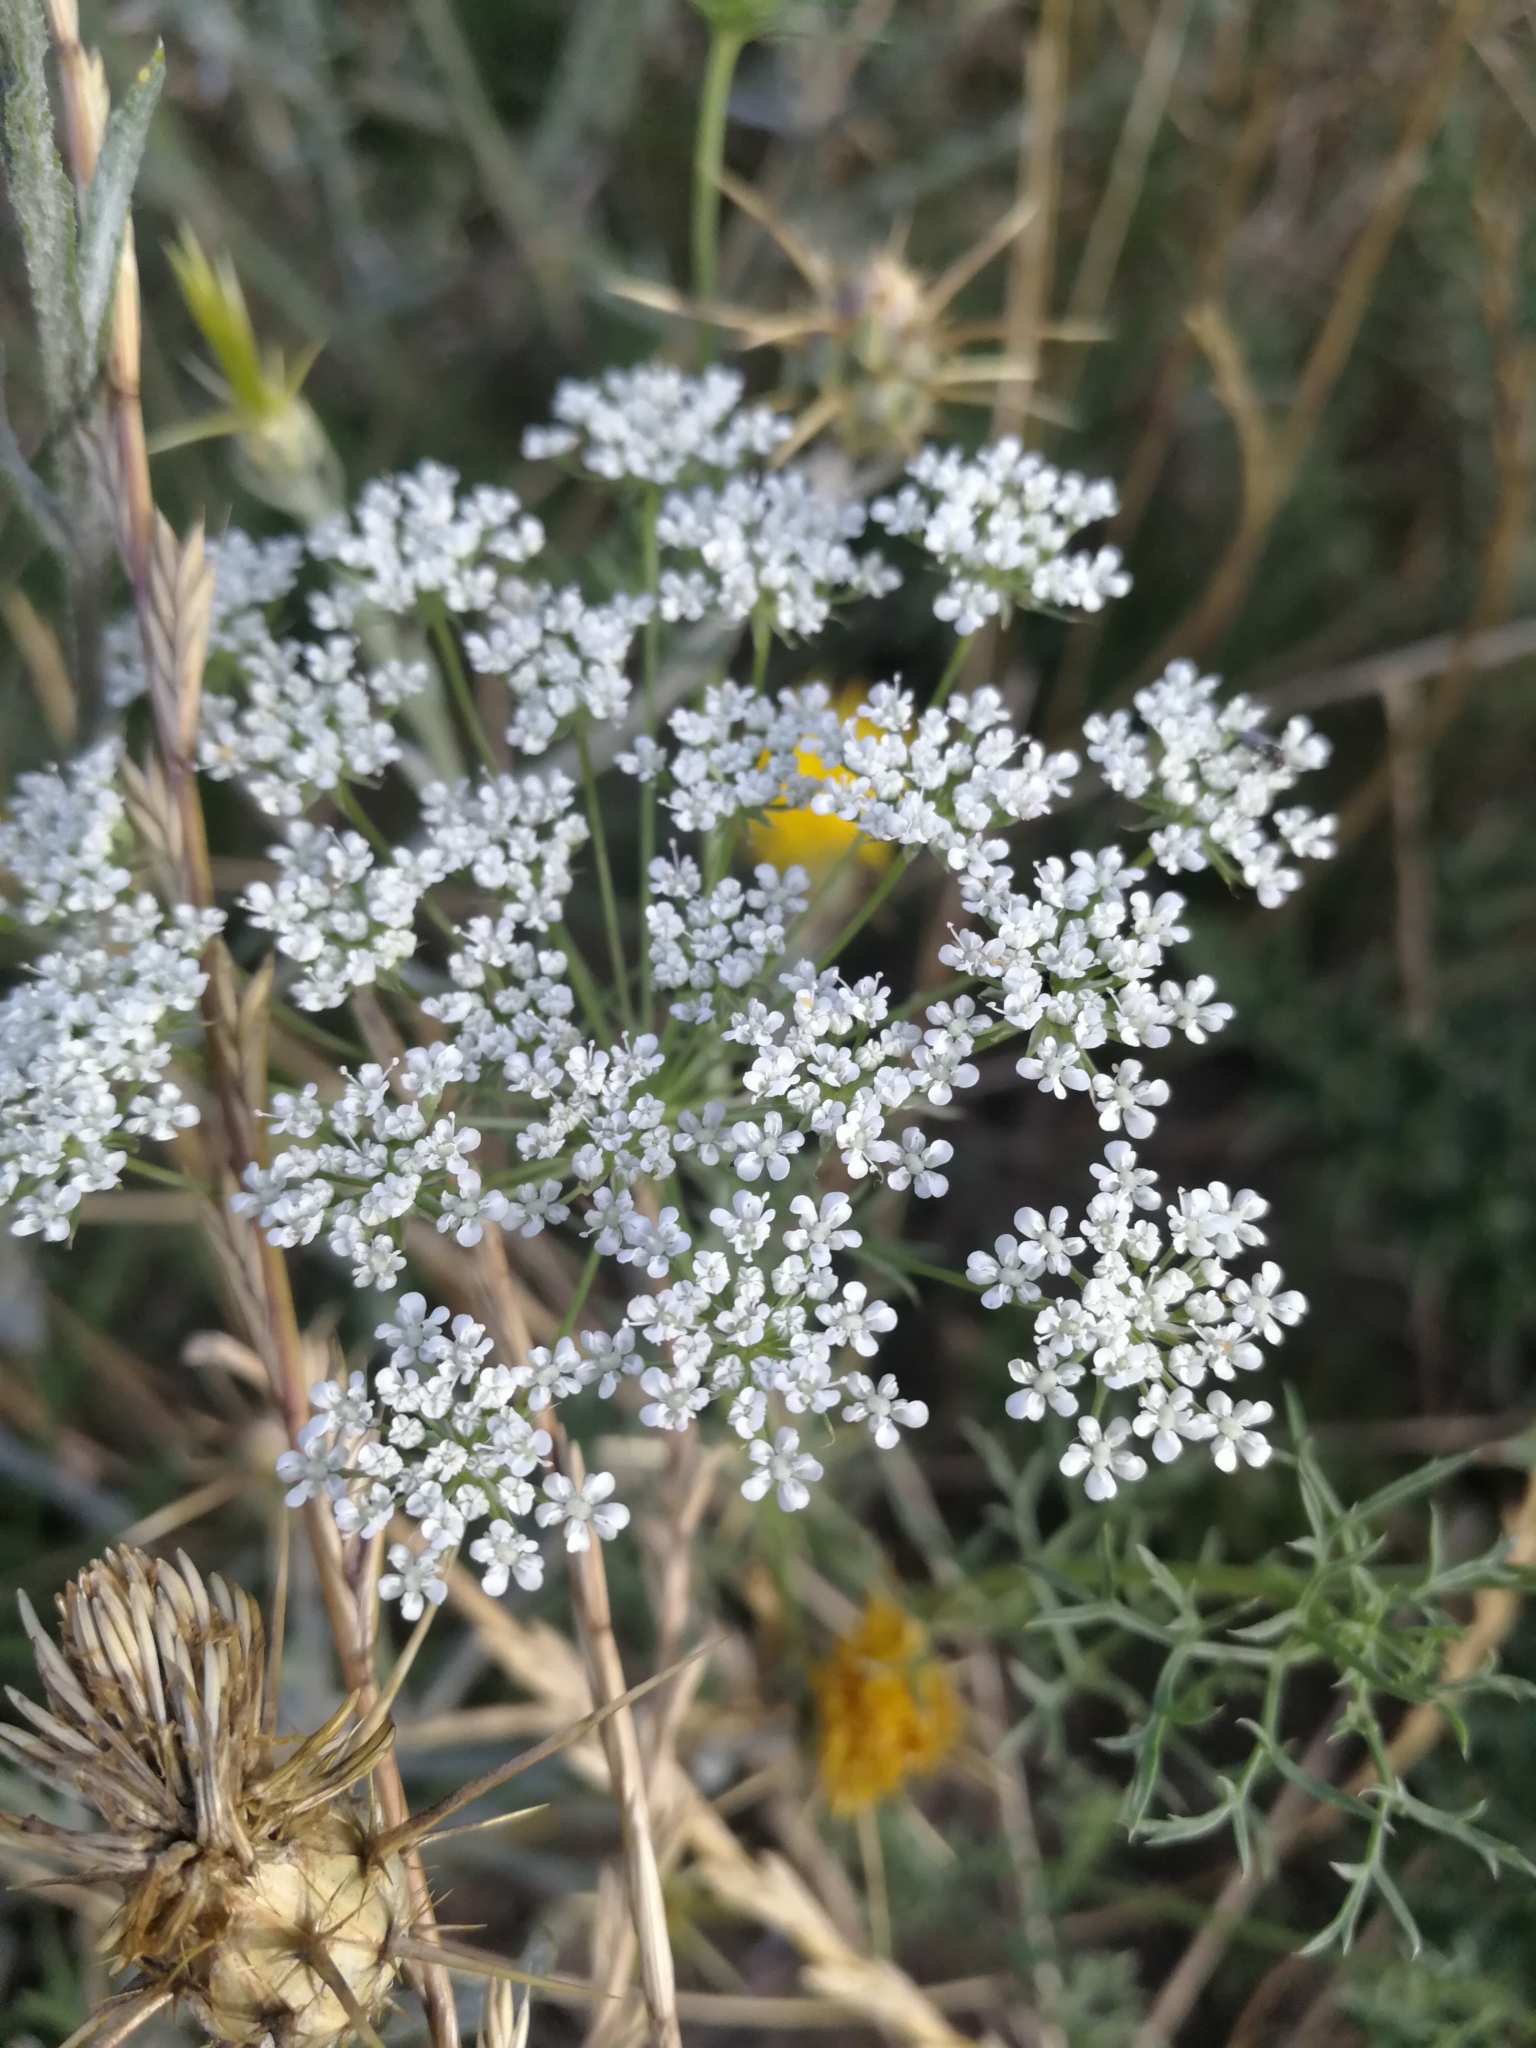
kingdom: Plantae
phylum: Tracheophyta
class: Magnoliopsida
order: Apiales
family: Apiaceae
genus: Conium
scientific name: Conium maculatum
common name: Hemlock
